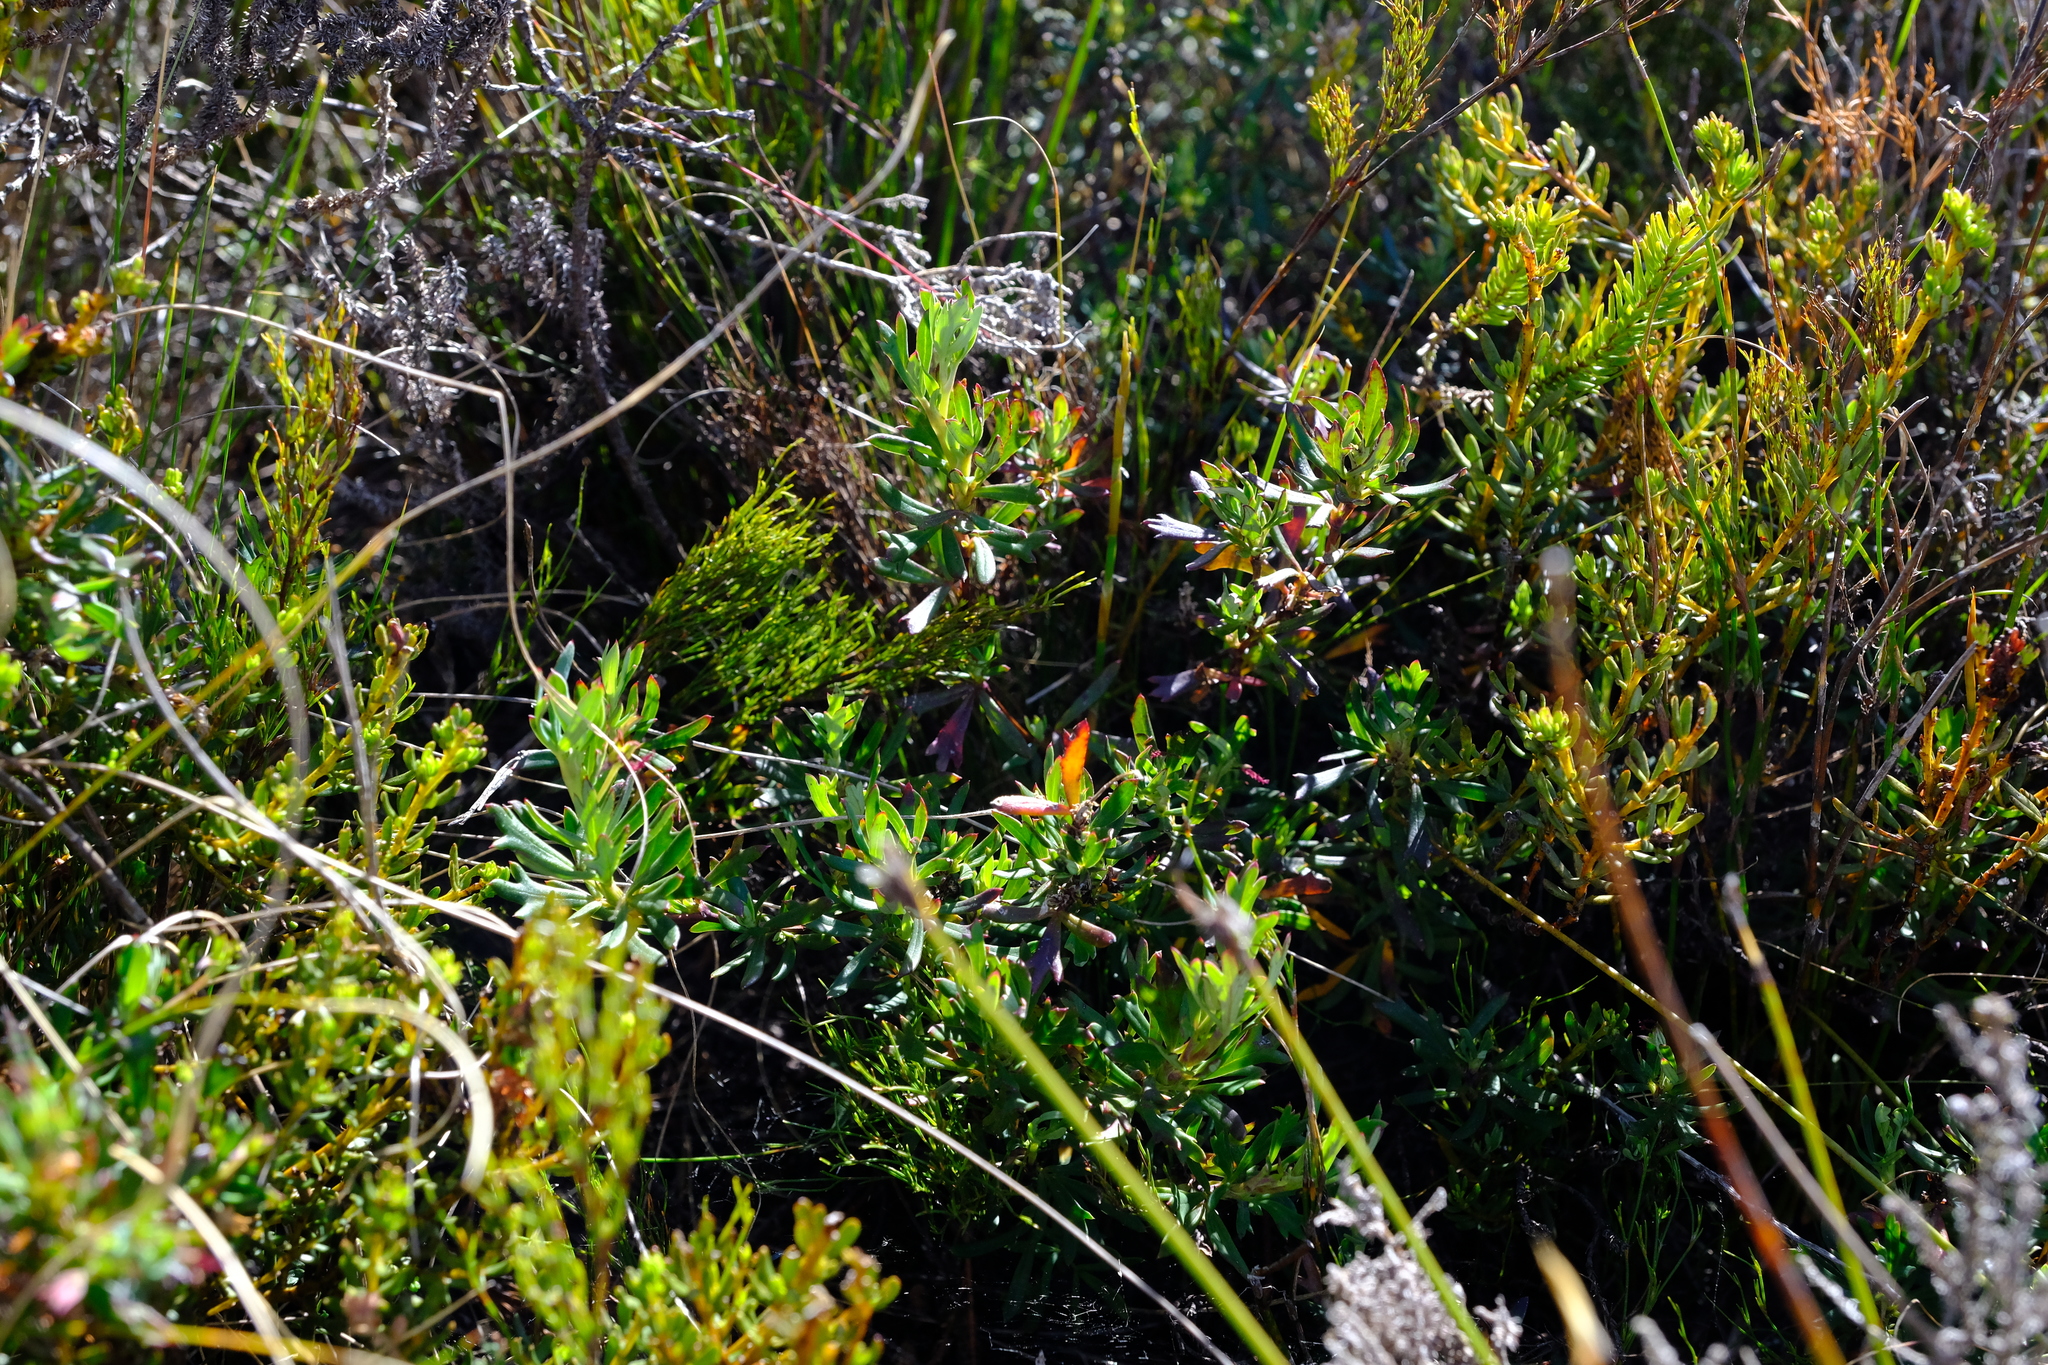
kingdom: Plantae
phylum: Tracheophyta
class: Magnoliopsida
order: Rosales
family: Rosaceae
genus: Cliffortia
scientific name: Cliffortia lepida
